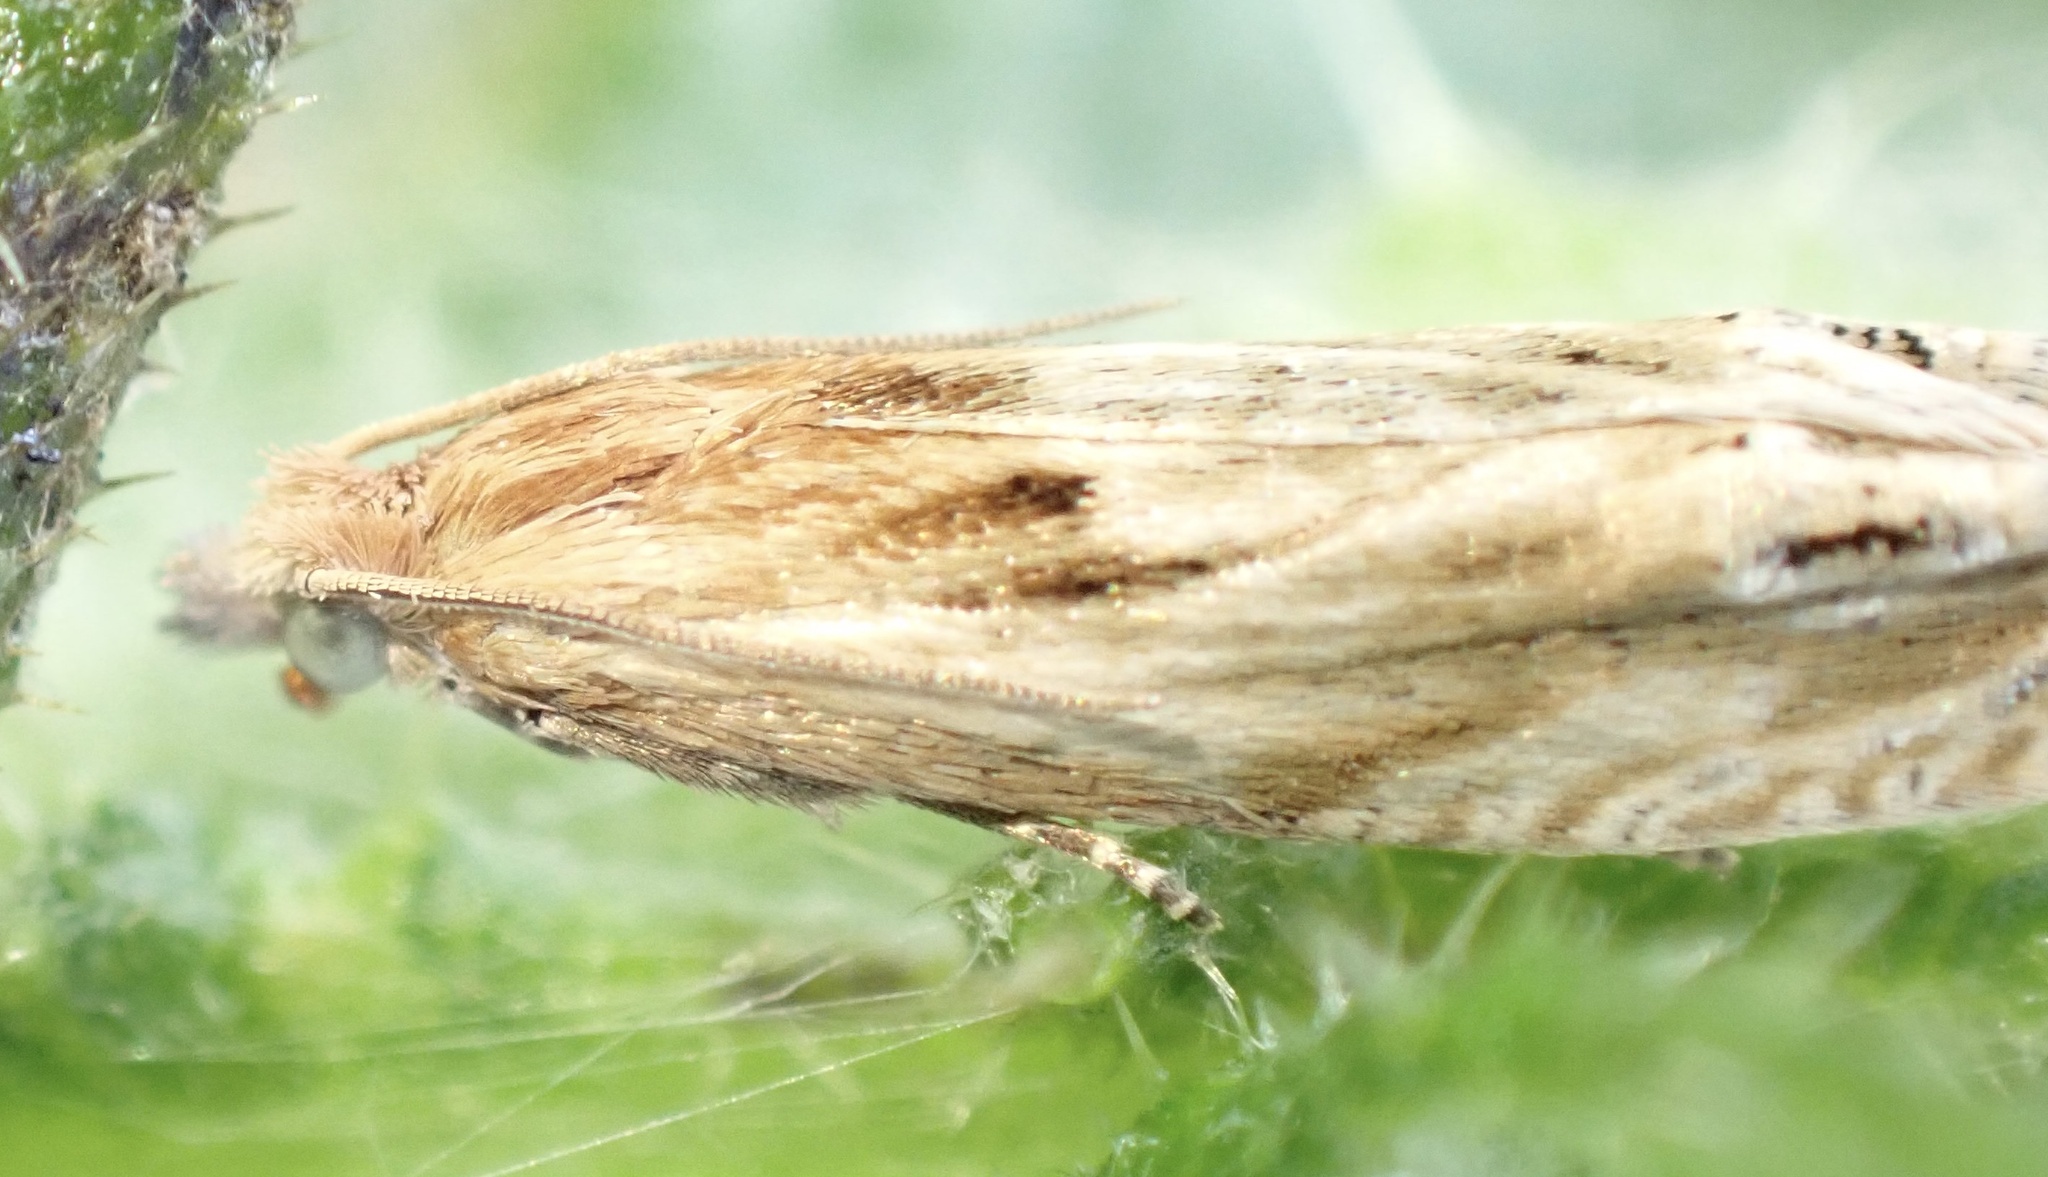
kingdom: Animalia
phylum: Arthropoda
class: Insecta
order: Lepidoptera
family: Tortricidae
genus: Eucosma
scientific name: Eucosma cana
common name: Hoary belle
